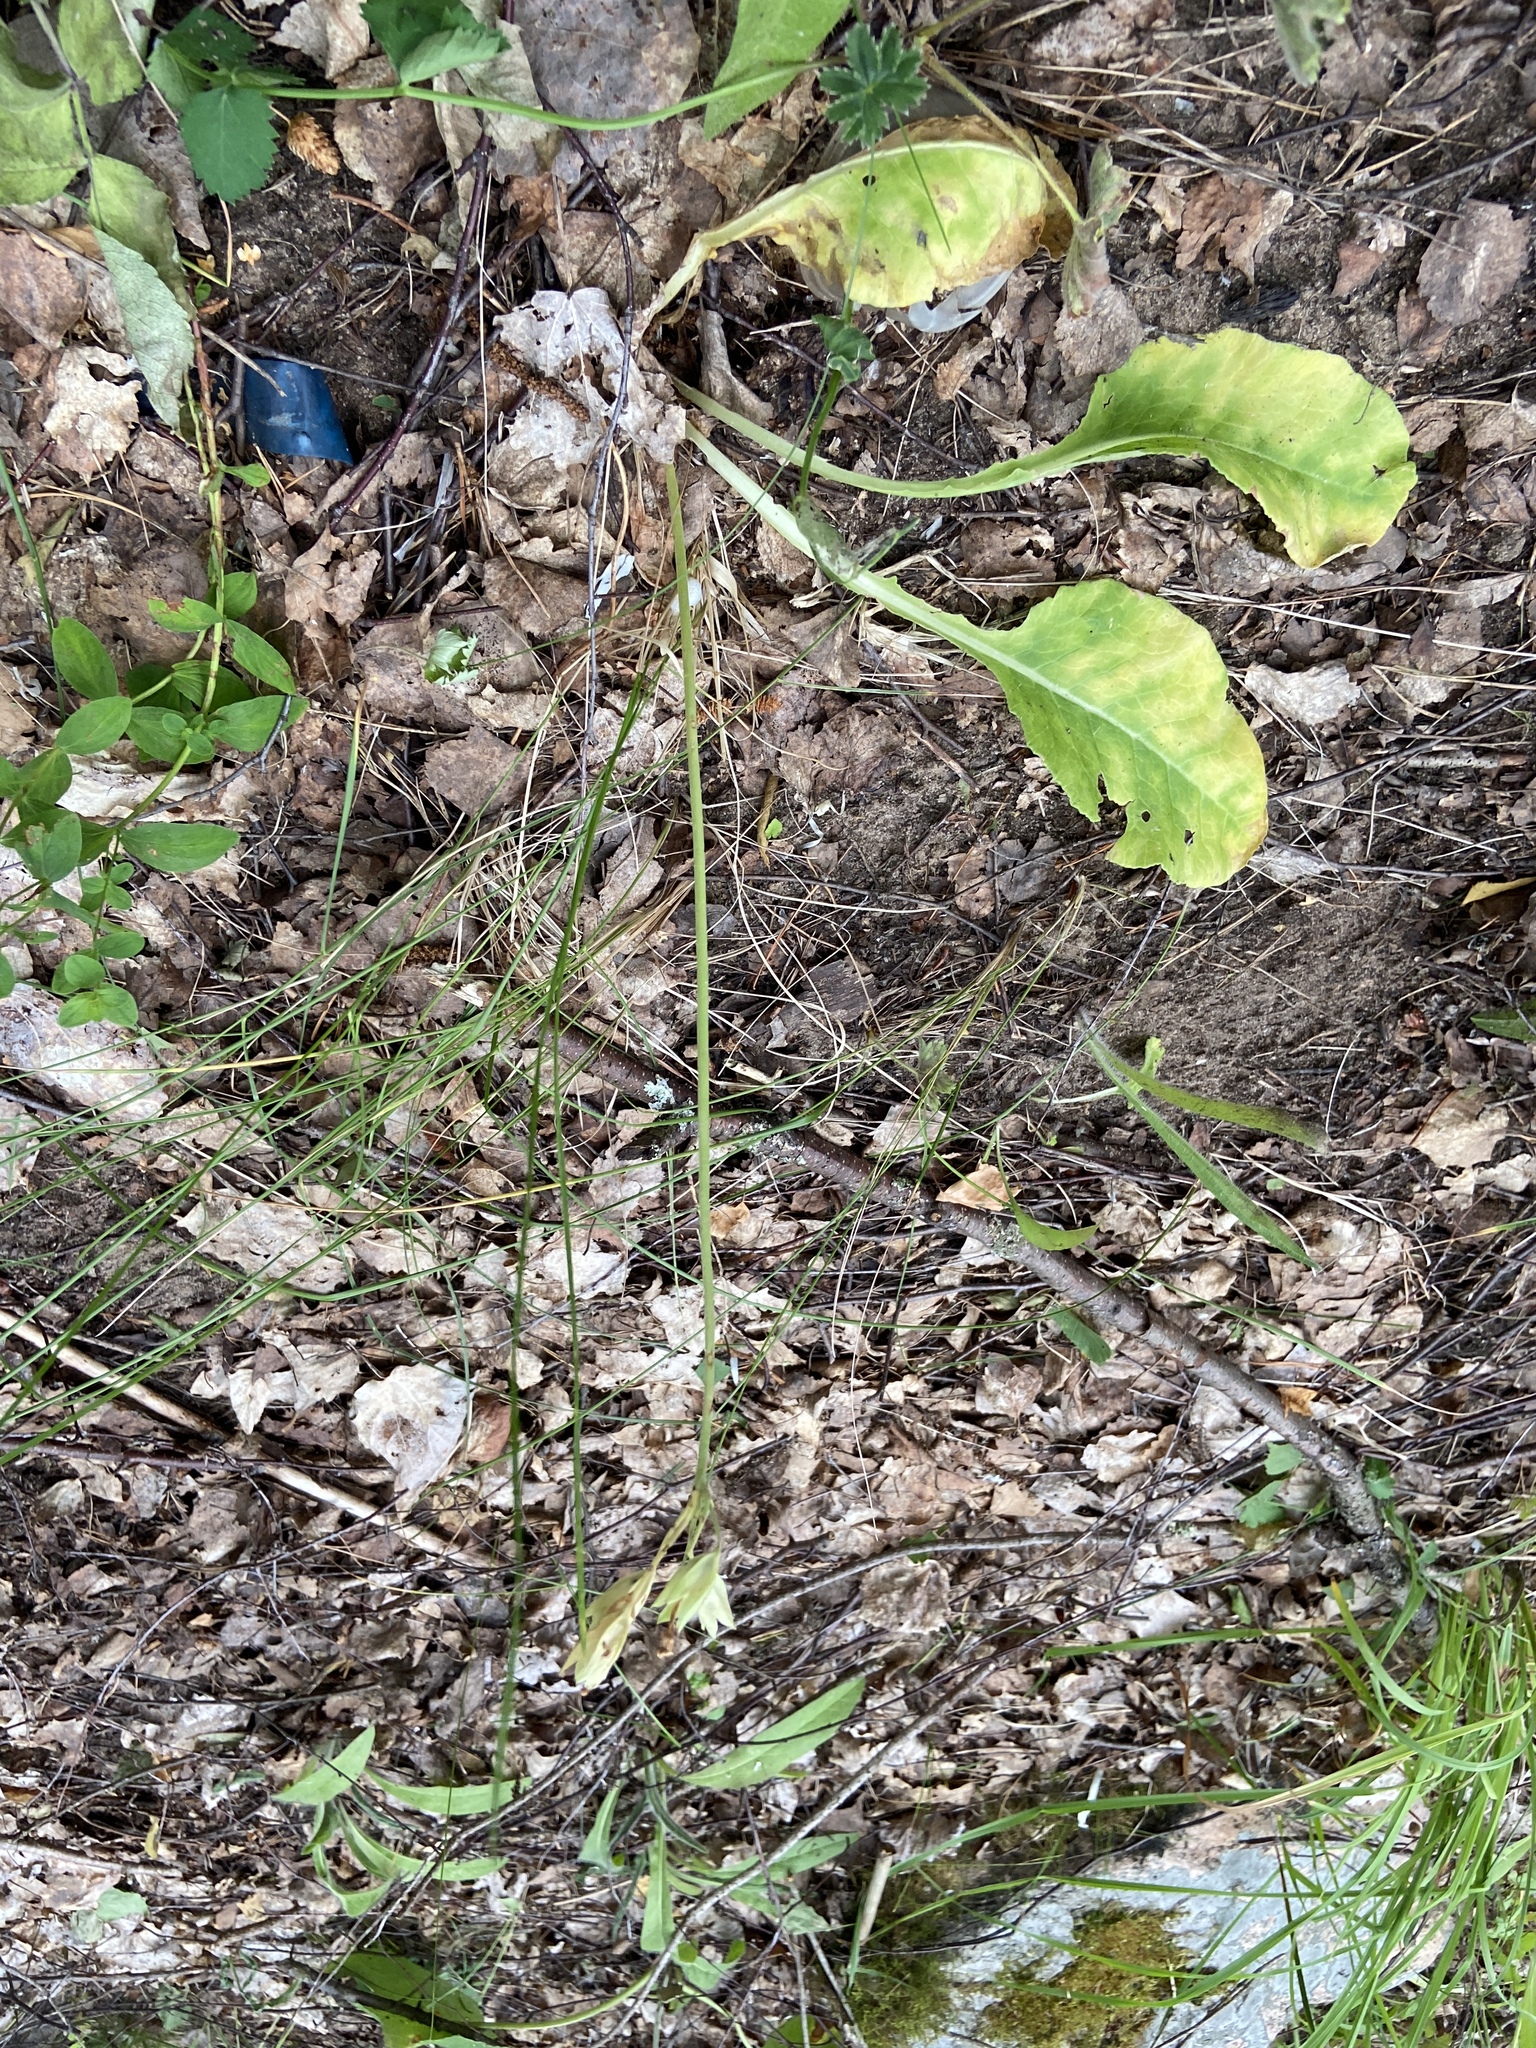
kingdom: Plantae
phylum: Tracheophyta
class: Magnoliopsida
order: Ericales
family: Primulaceae
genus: Primula
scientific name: Primula veris
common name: Cowslip
